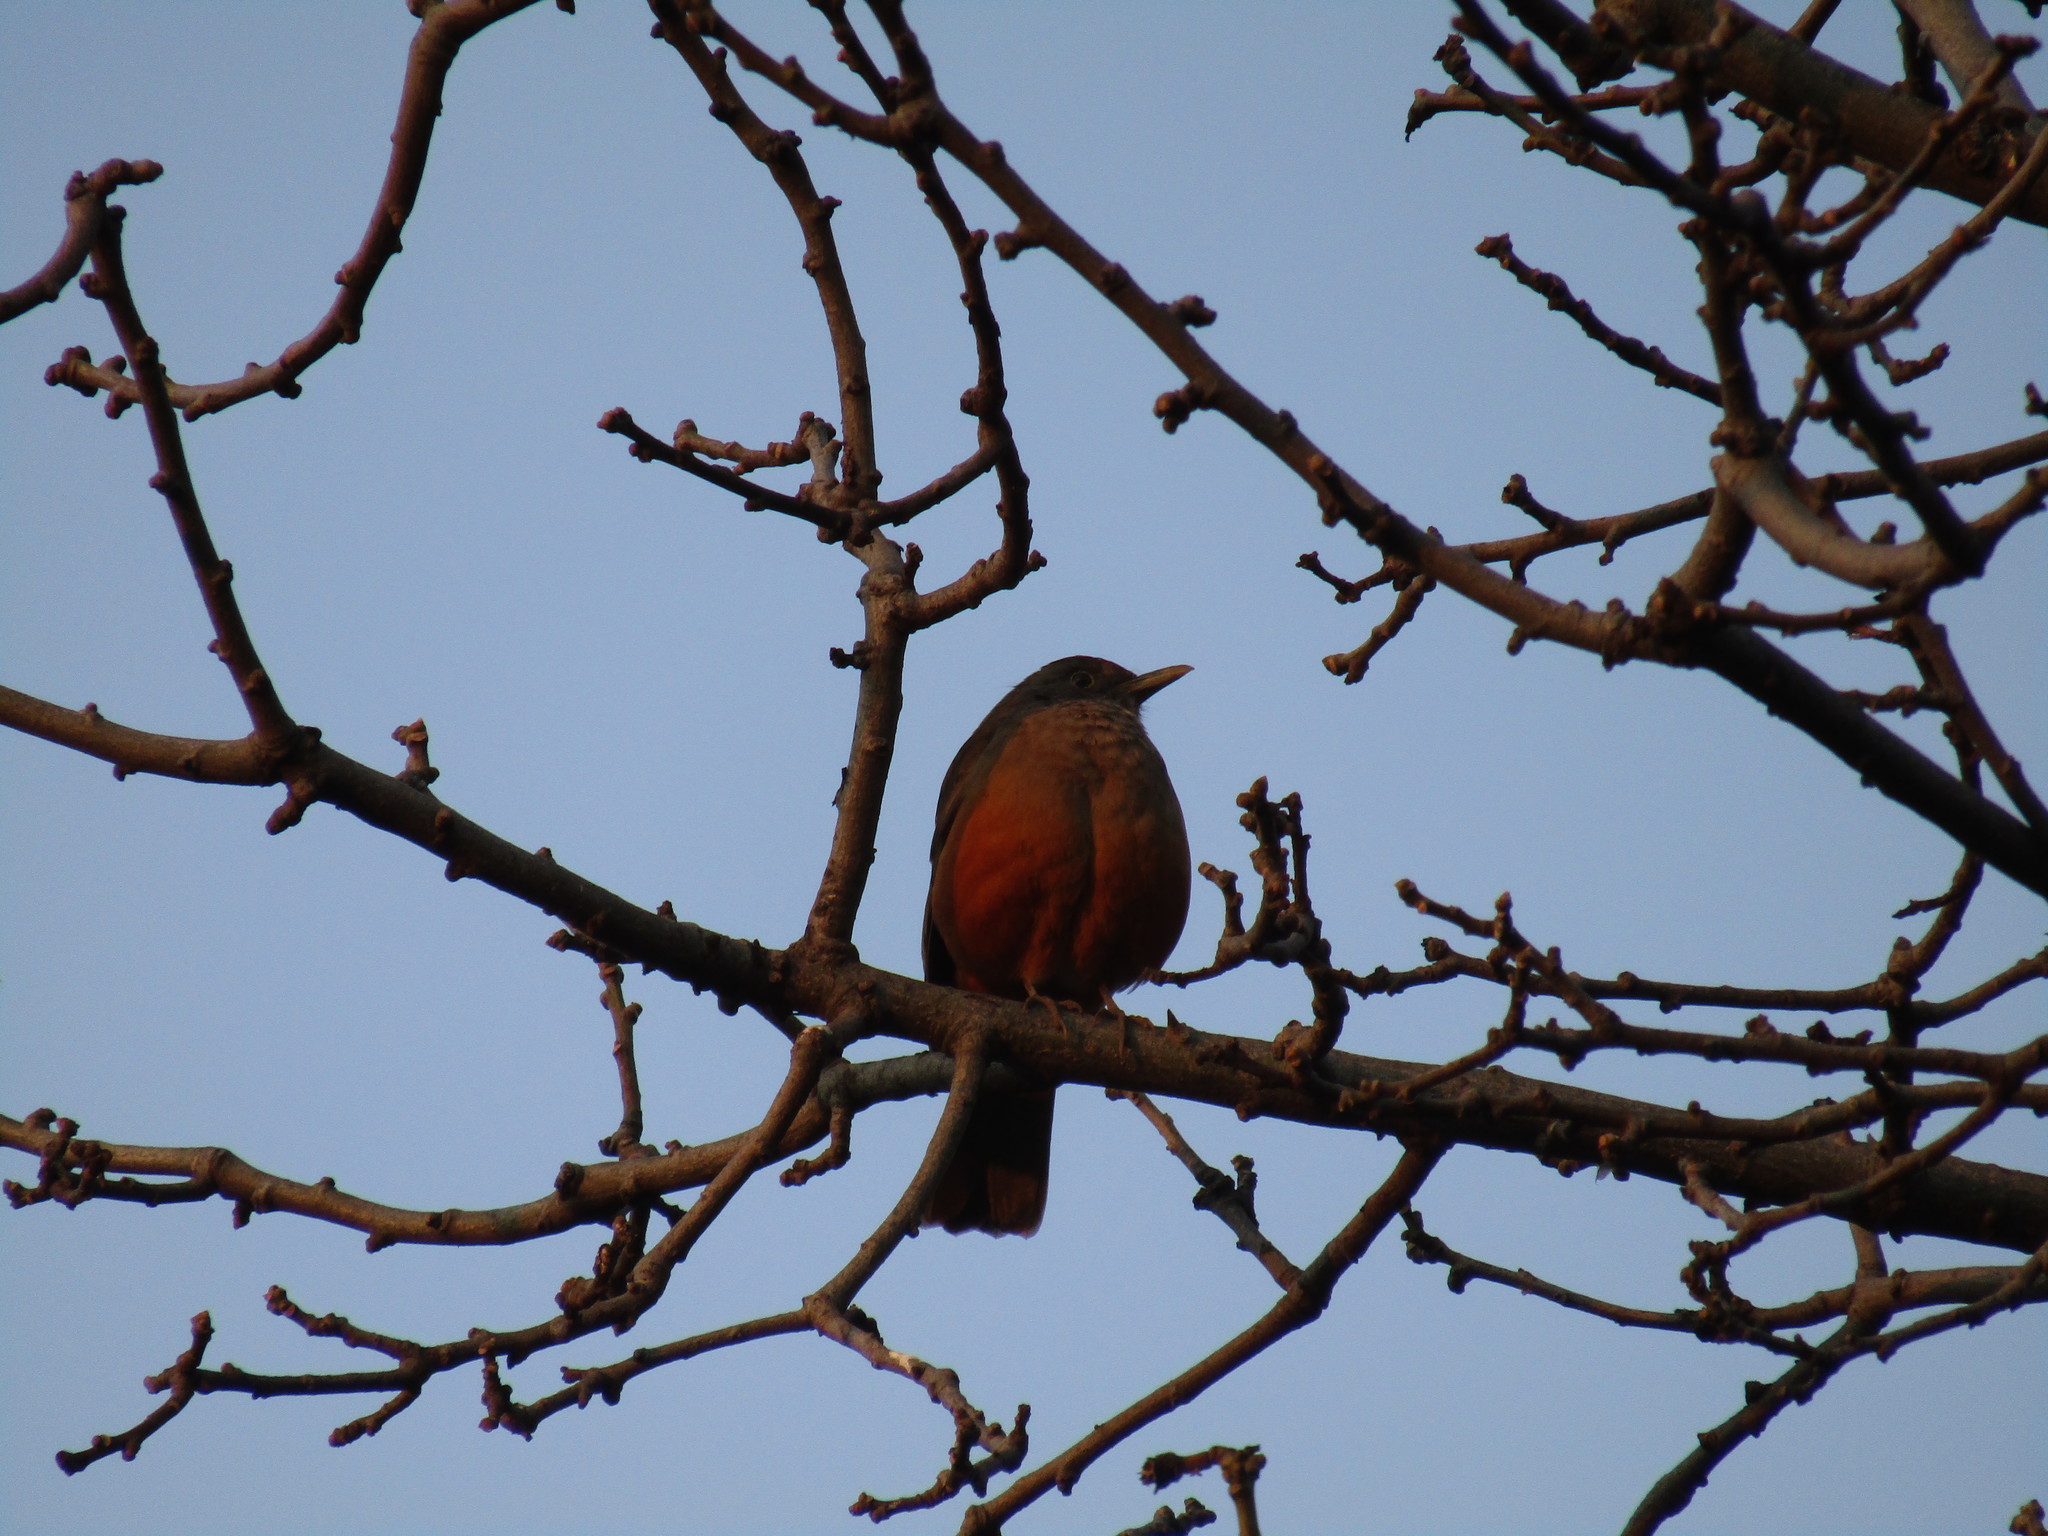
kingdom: Animalia
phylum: Chordata
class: Aves
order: Passeriformes
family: Turdidae
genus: Turdus
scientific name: Turdus rufiventris
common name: Rufous-bellied thrush
